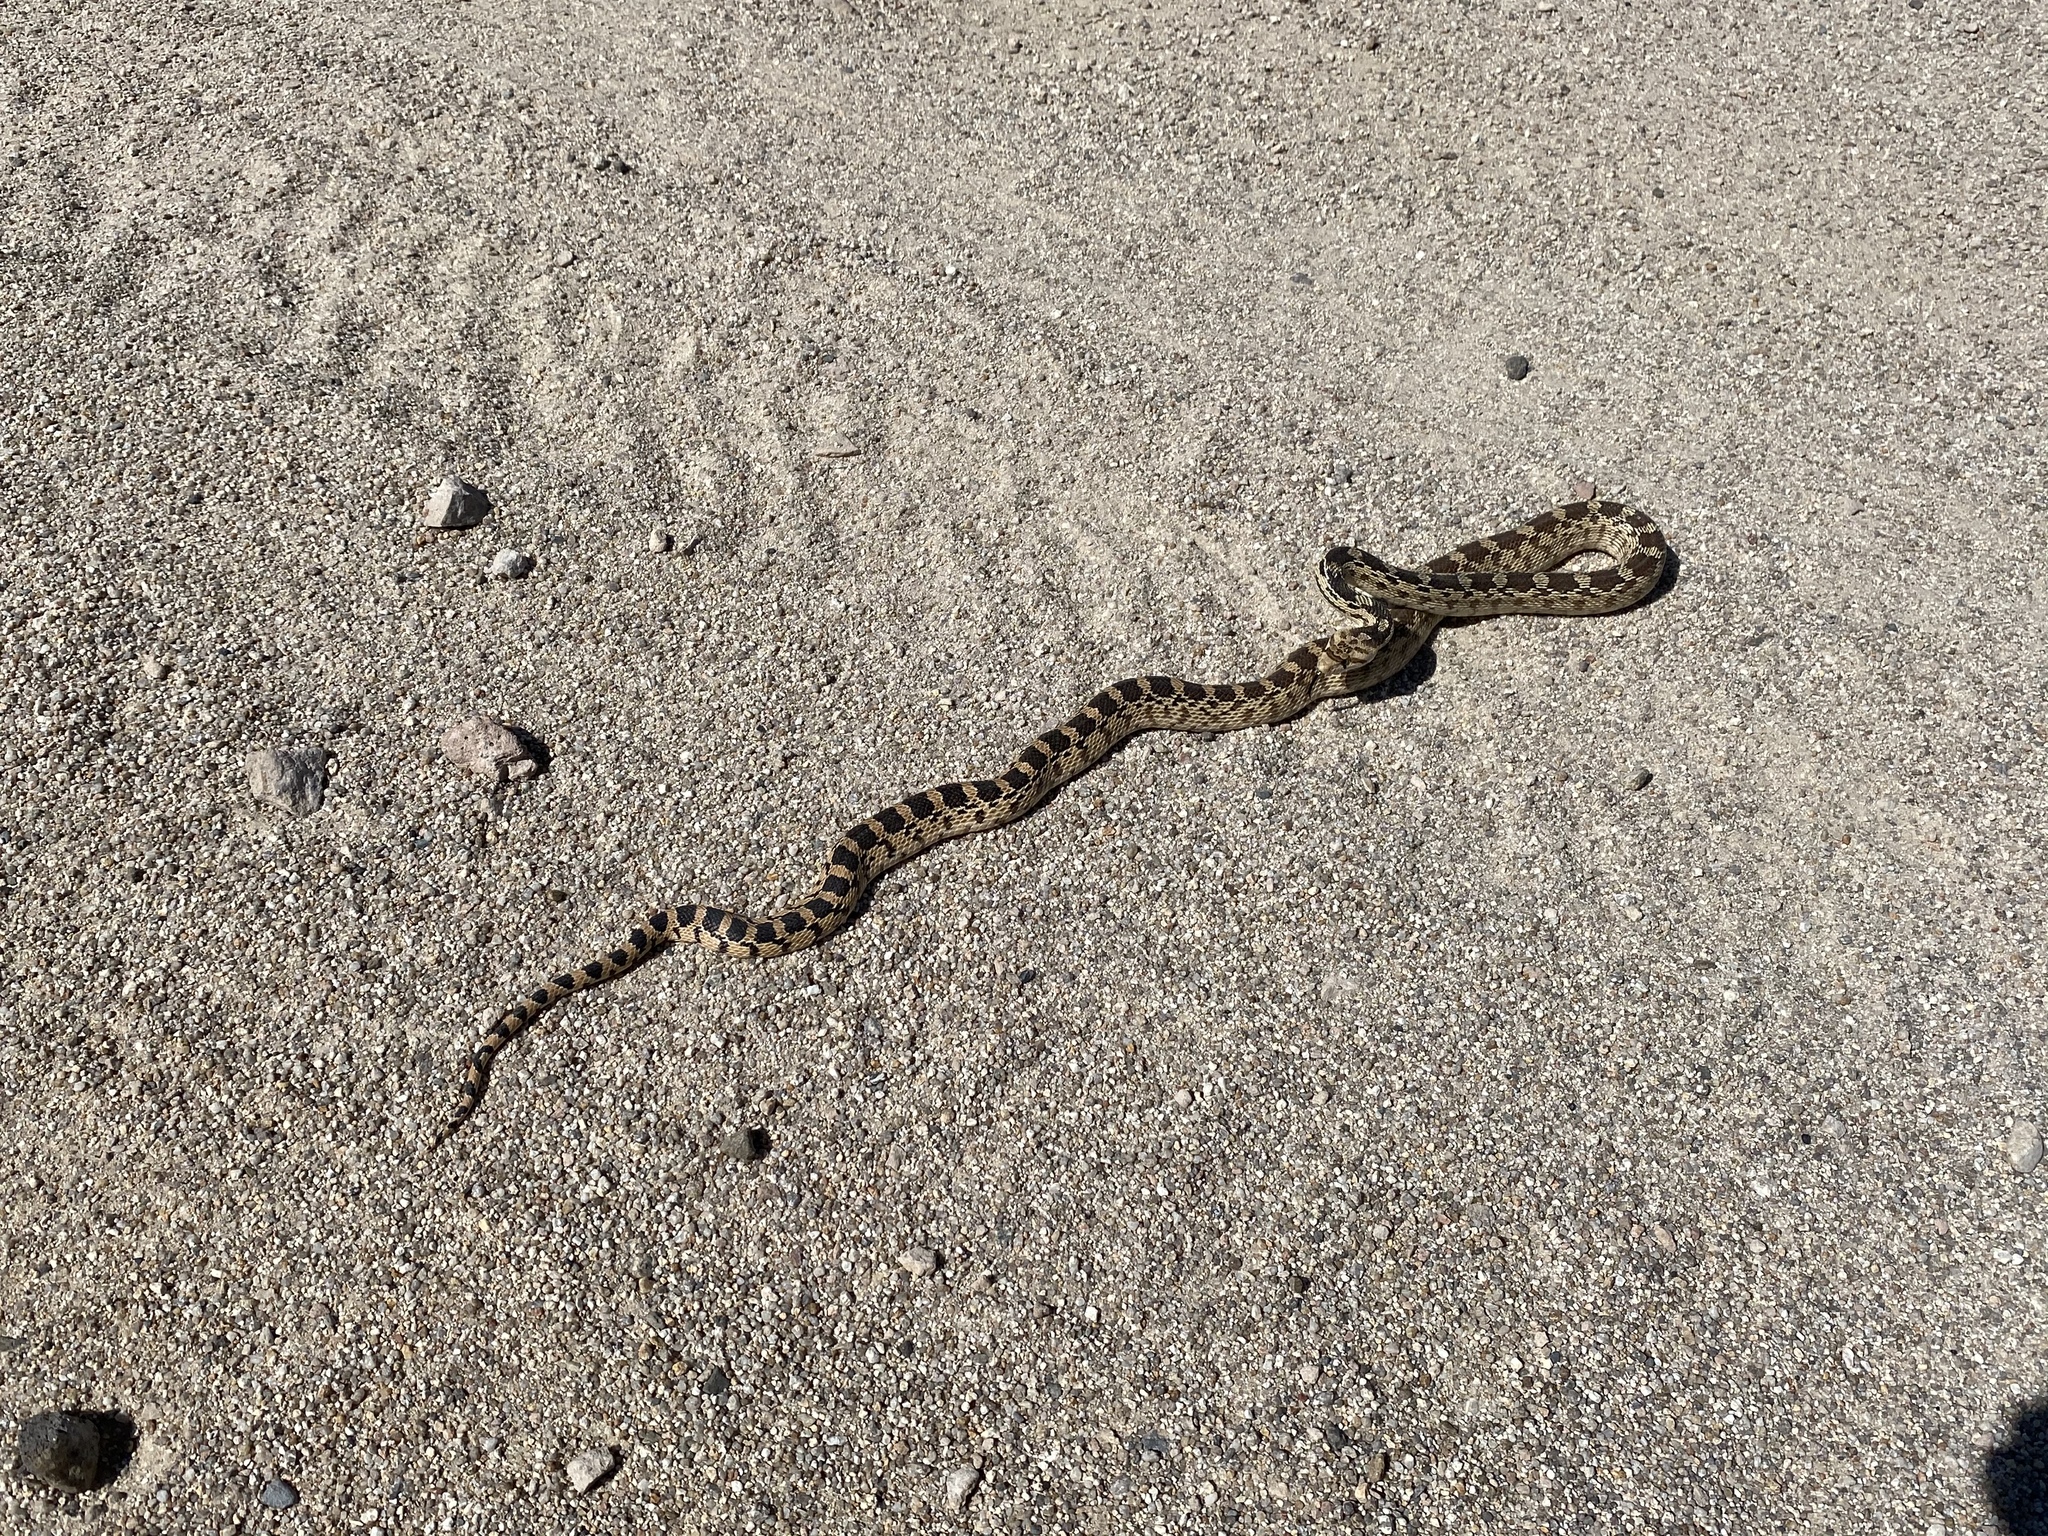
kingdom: Animalia
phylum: Chordata
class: Squamata
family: Colubridae
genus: Pituophis
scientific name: Pituophis catenifer
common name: Gopher snake
